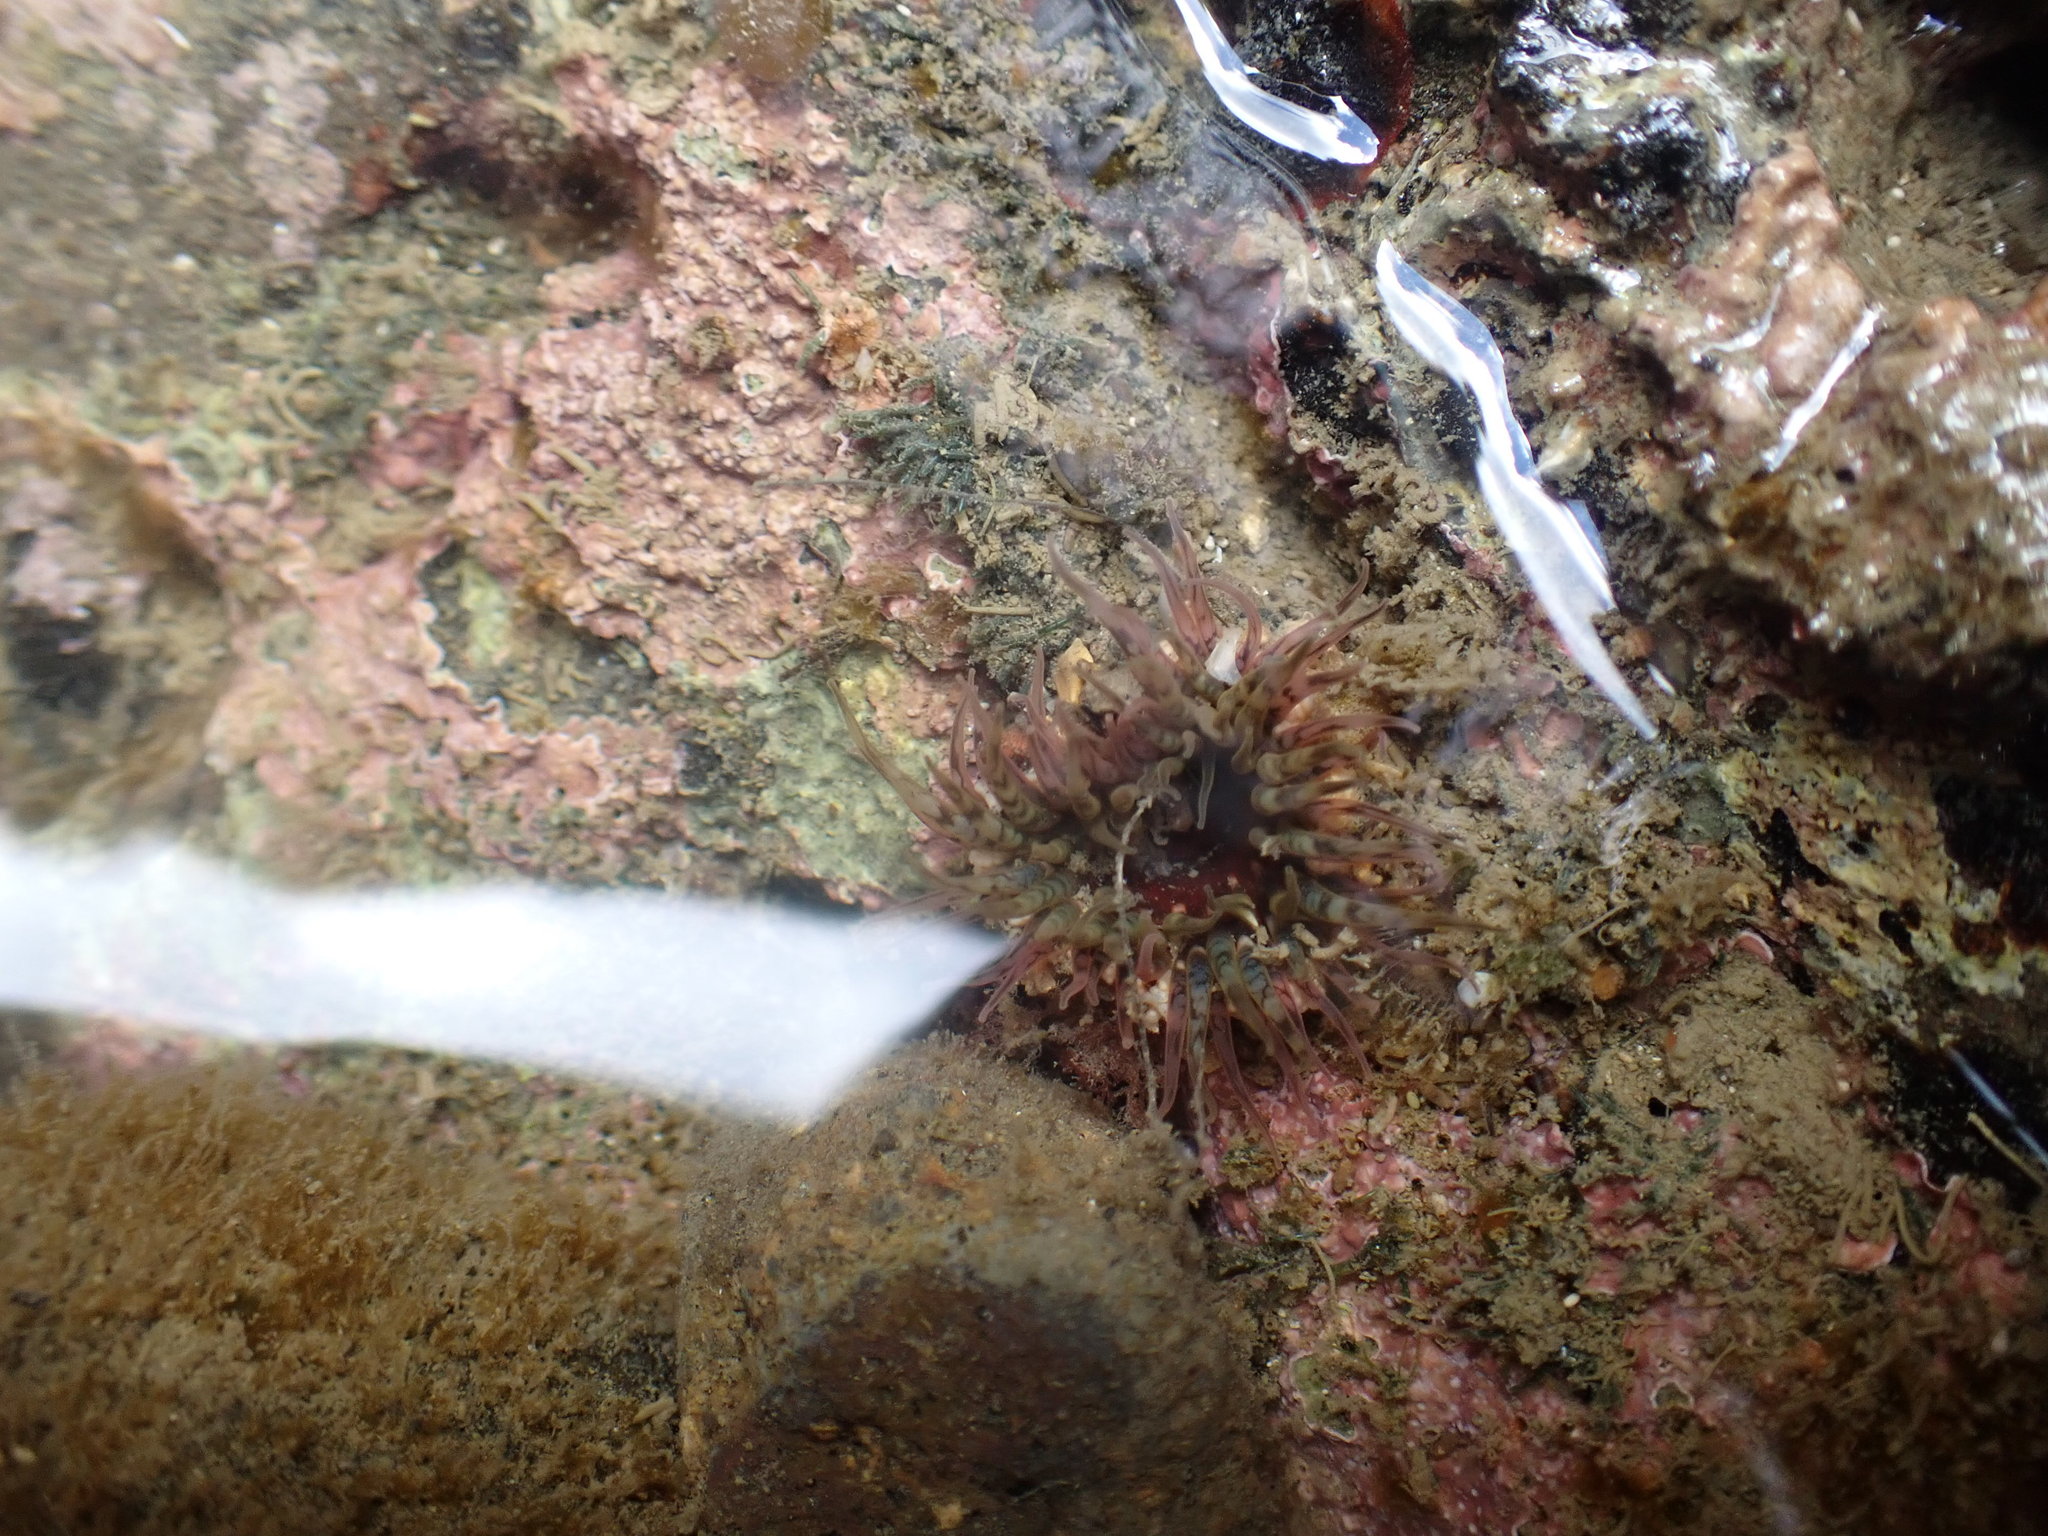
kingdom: Animalia
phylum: Cnidaria
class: Anthozoa
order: Actiniaria
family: Actiniidae
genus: Oulactis
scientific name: Oulactis muscosa
